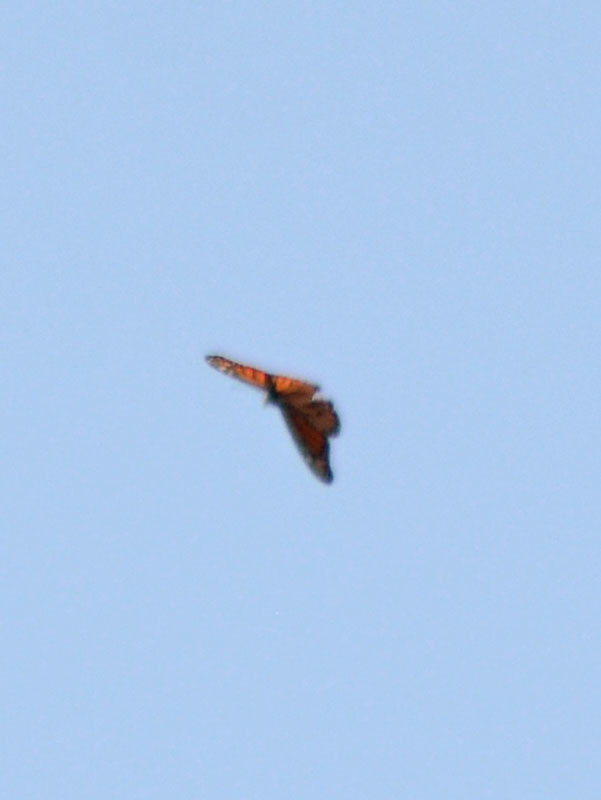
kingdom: Animalia
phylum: Arthropoda
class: Insecta
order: Lepidoptera
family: Nymphalidae
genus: Danaus
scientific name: Danaus plexippus
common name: Monarch
